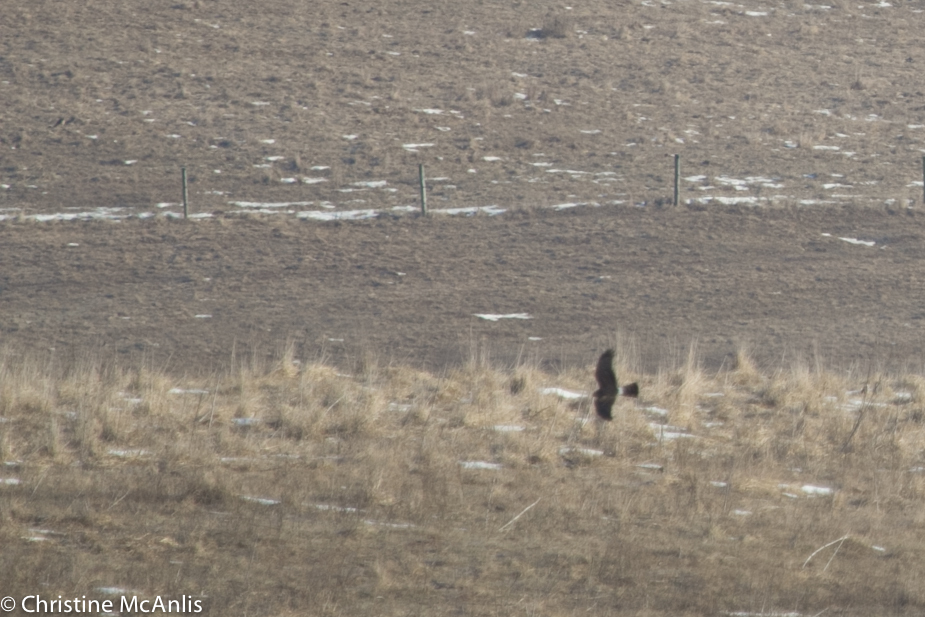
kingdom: Animalia
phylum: Chordata
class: Aves
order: Accipitriformes
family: Accipitridae
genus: Circus
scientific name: Circus cyaneus
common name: Hen harrier
